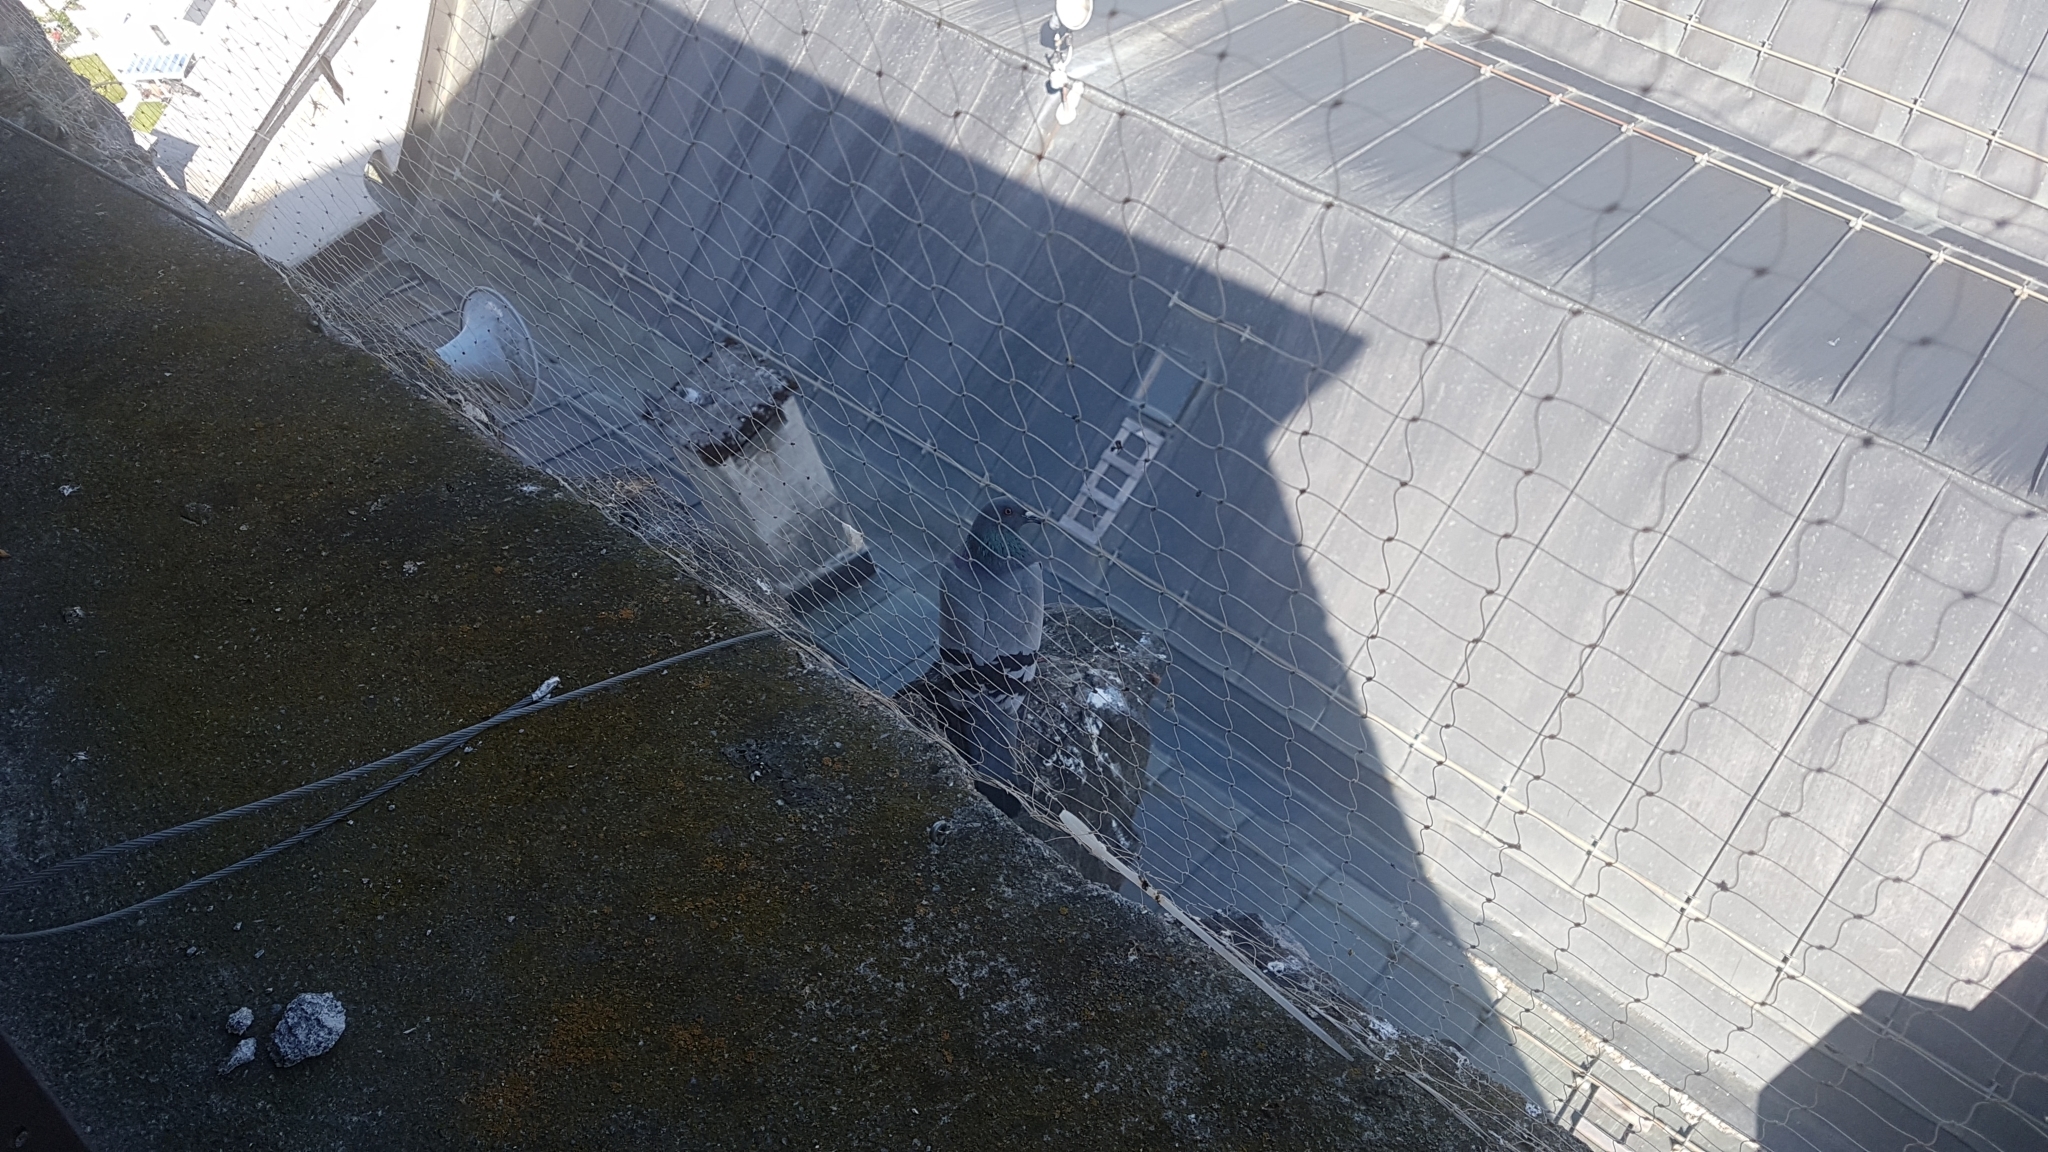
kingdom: Animalia
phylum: Chordata
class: Aves
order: Columbiformes
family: Columbidae
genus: Columba
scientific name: Columba livia
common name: Rock pigeon
